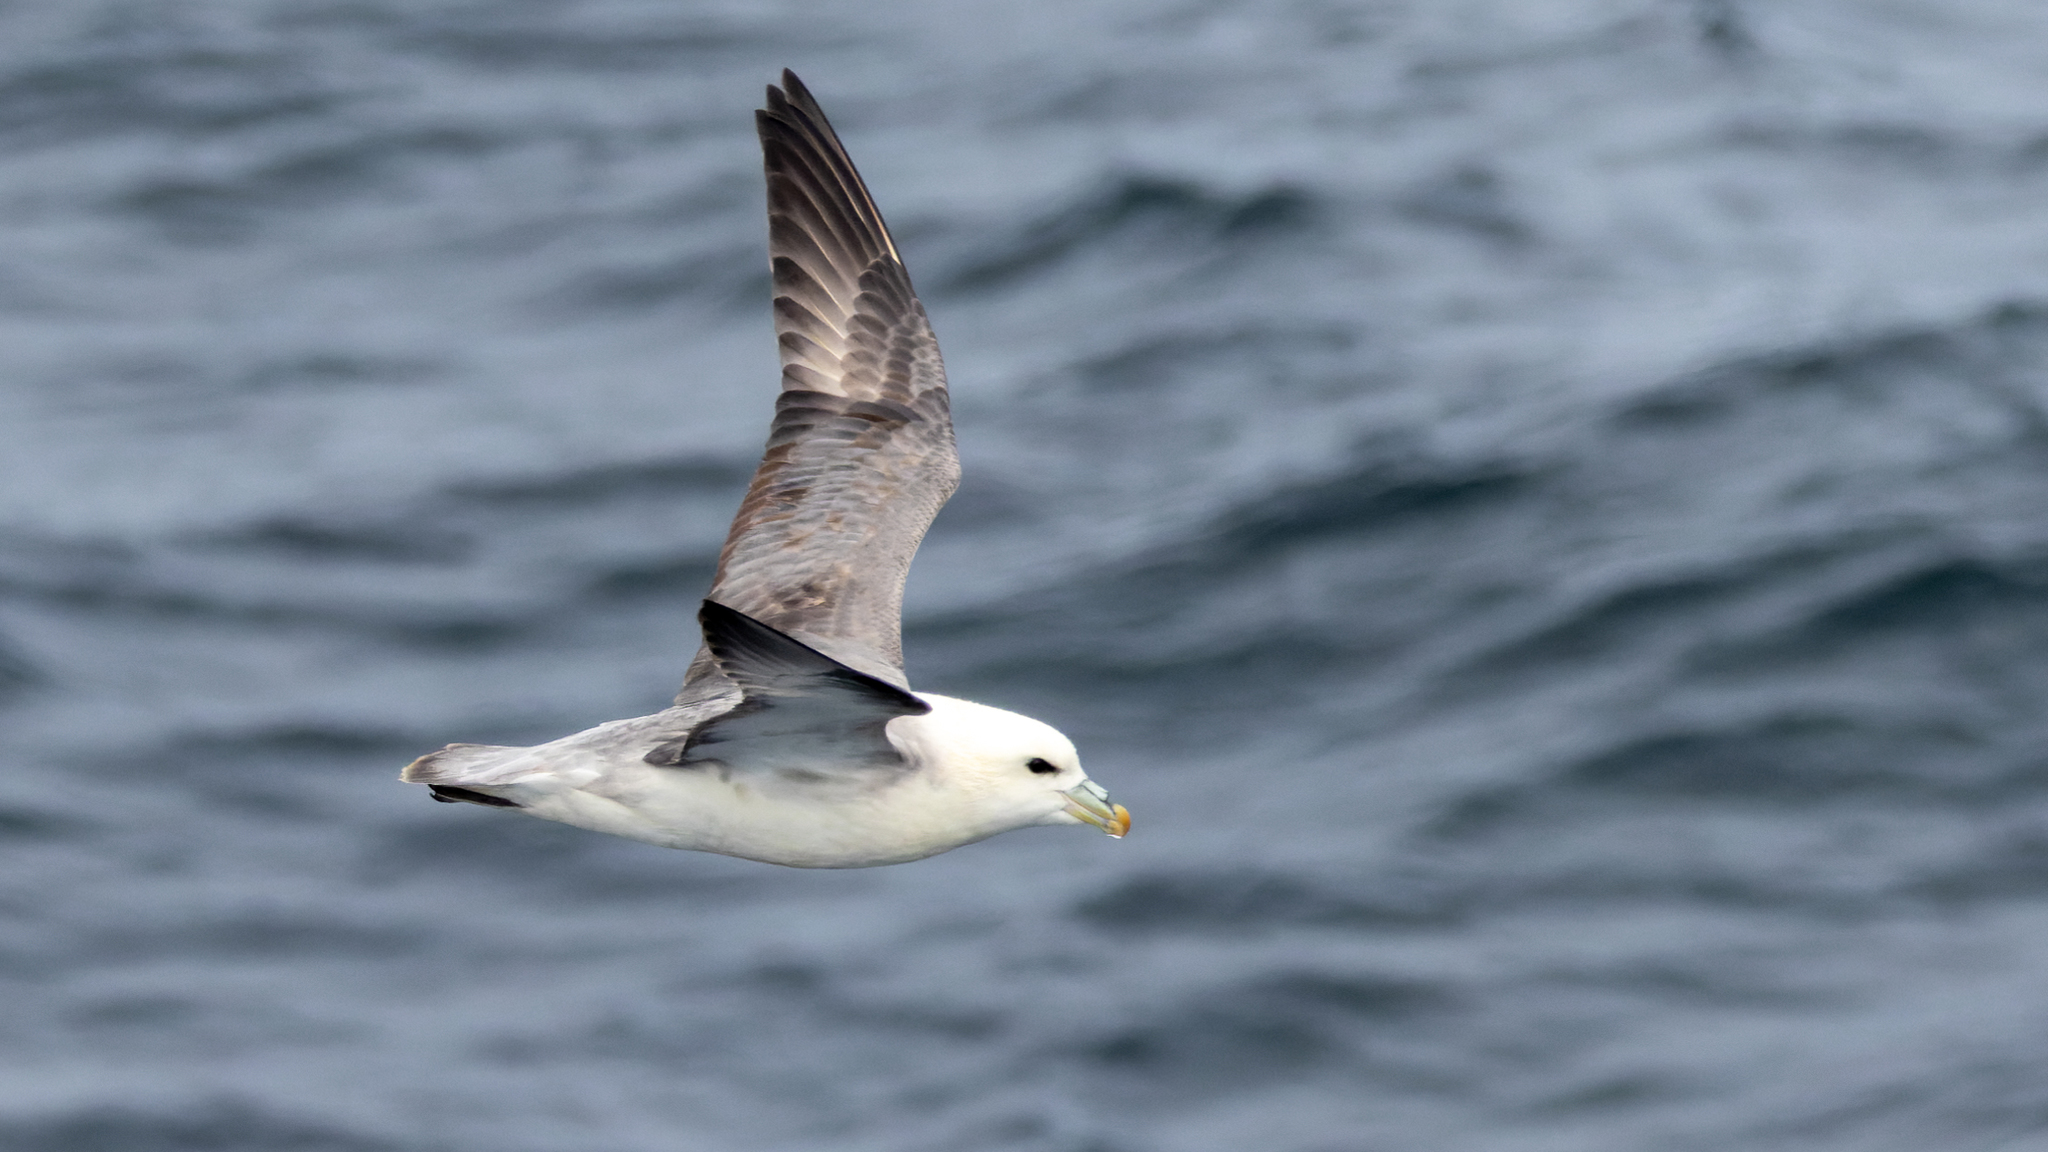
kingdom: Animalia
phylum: Chordata
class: Aves
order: Procellariiformes
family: Procellariidae
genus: Fulmarus
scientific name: Fulmarus glacialis
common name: Northern fulmar
